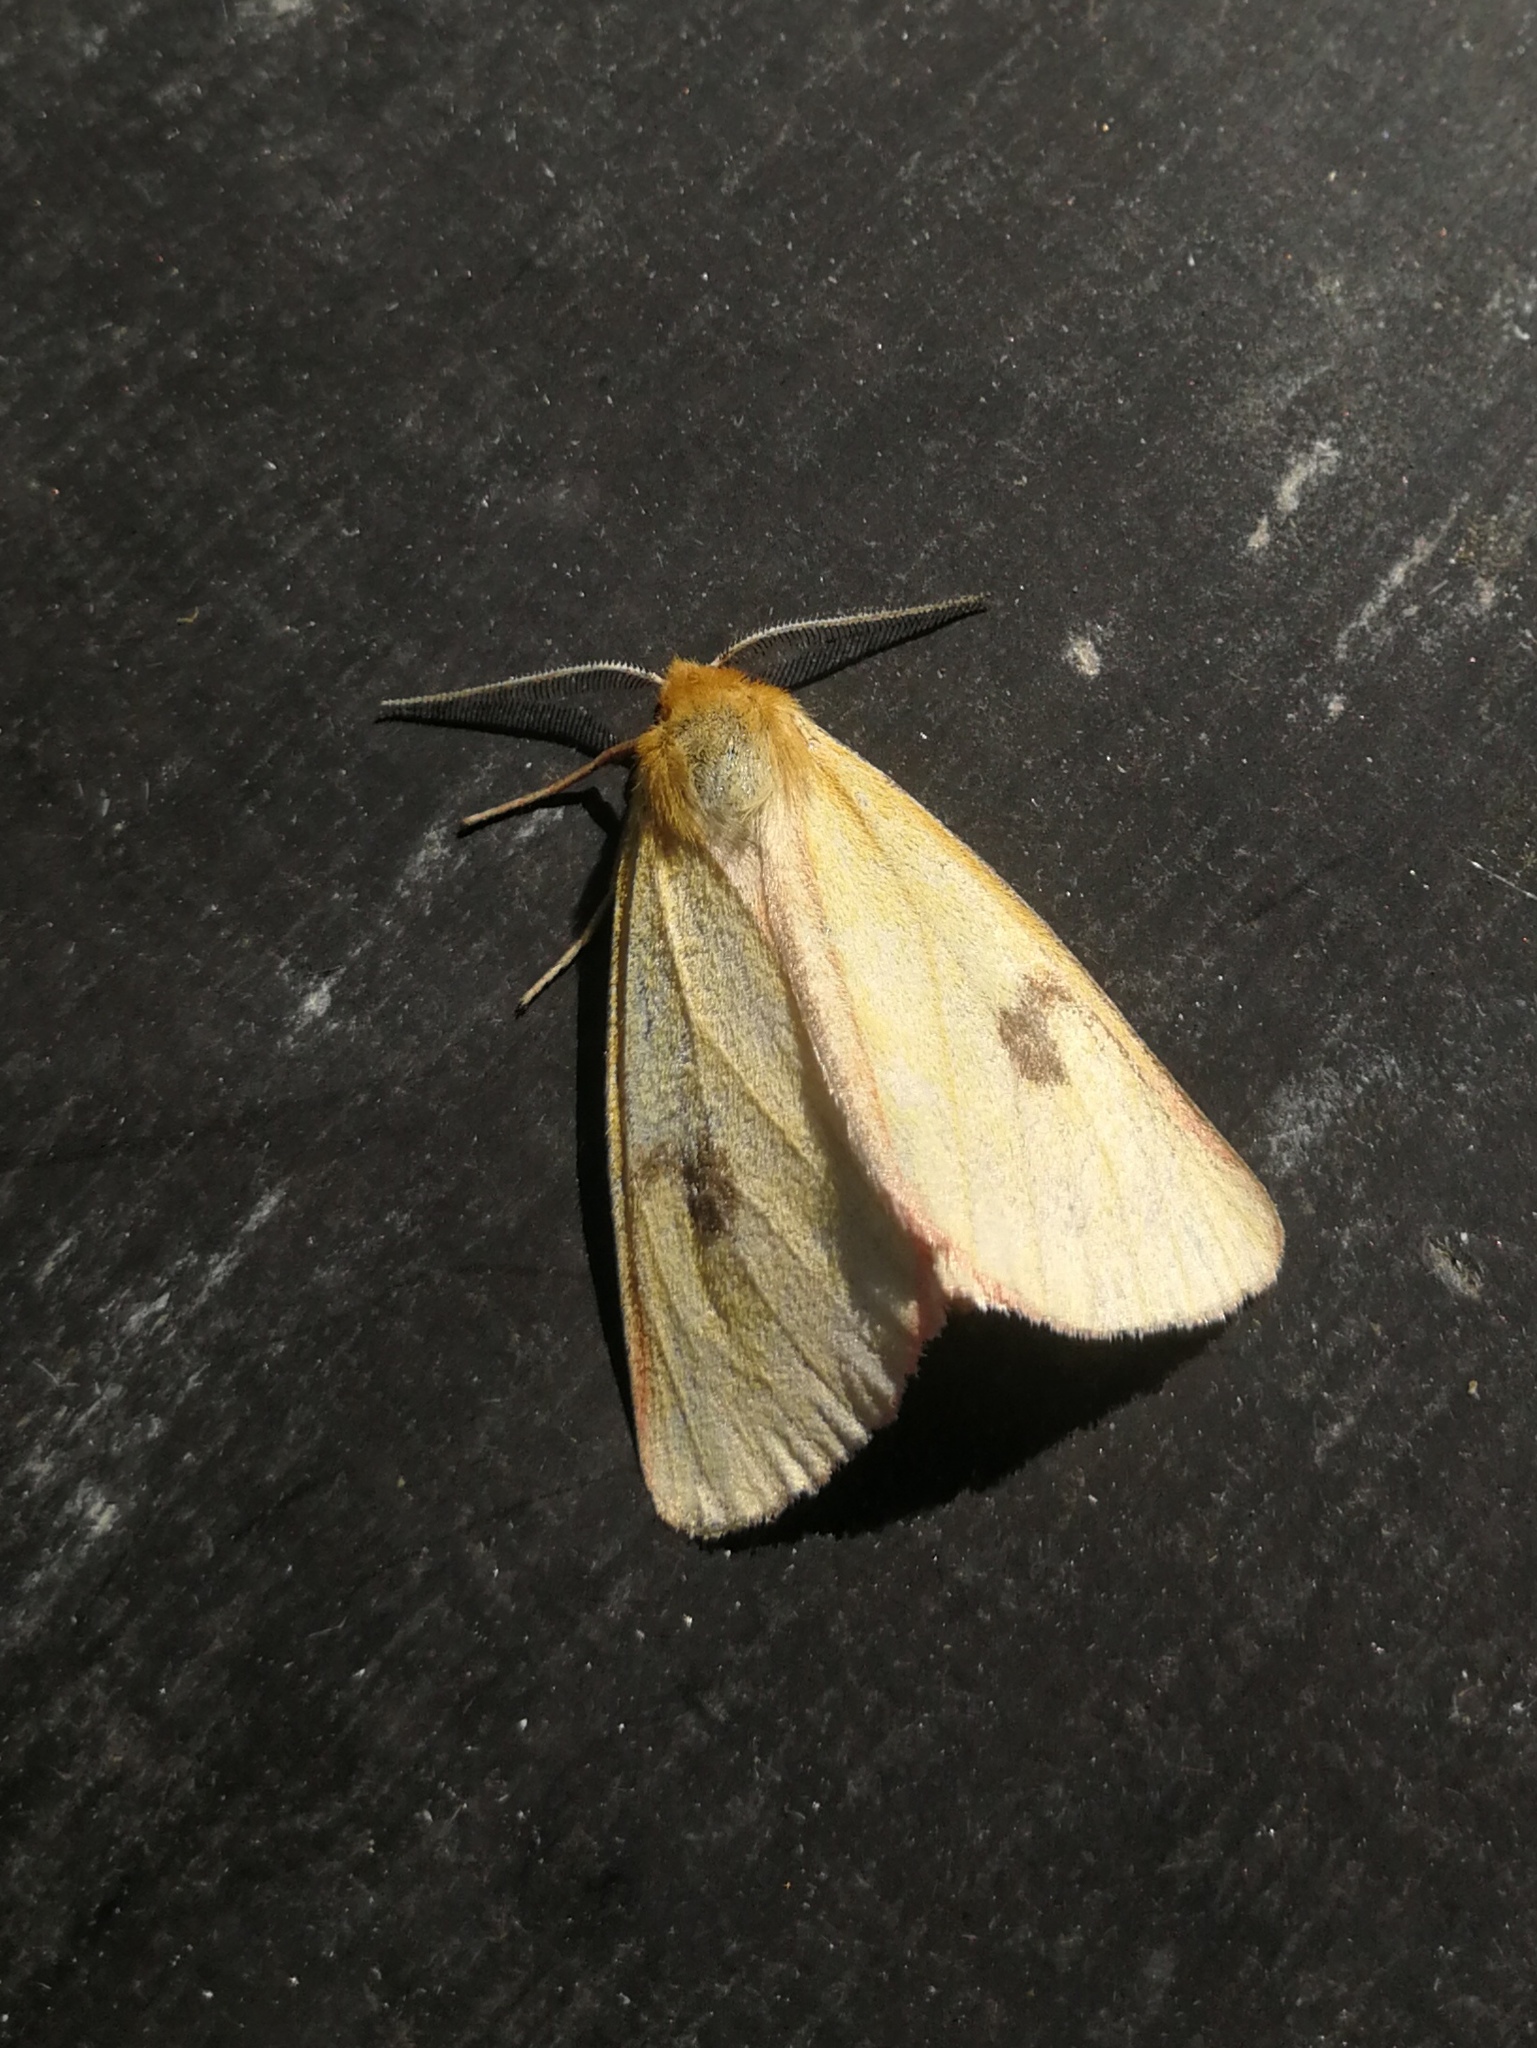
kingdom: Animalia
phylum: Arthropoda
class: Insecta
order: Lepidoptera
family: Erebidae
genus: Diacrisia
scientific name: Diacrisia sannio
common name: Clouded buff
